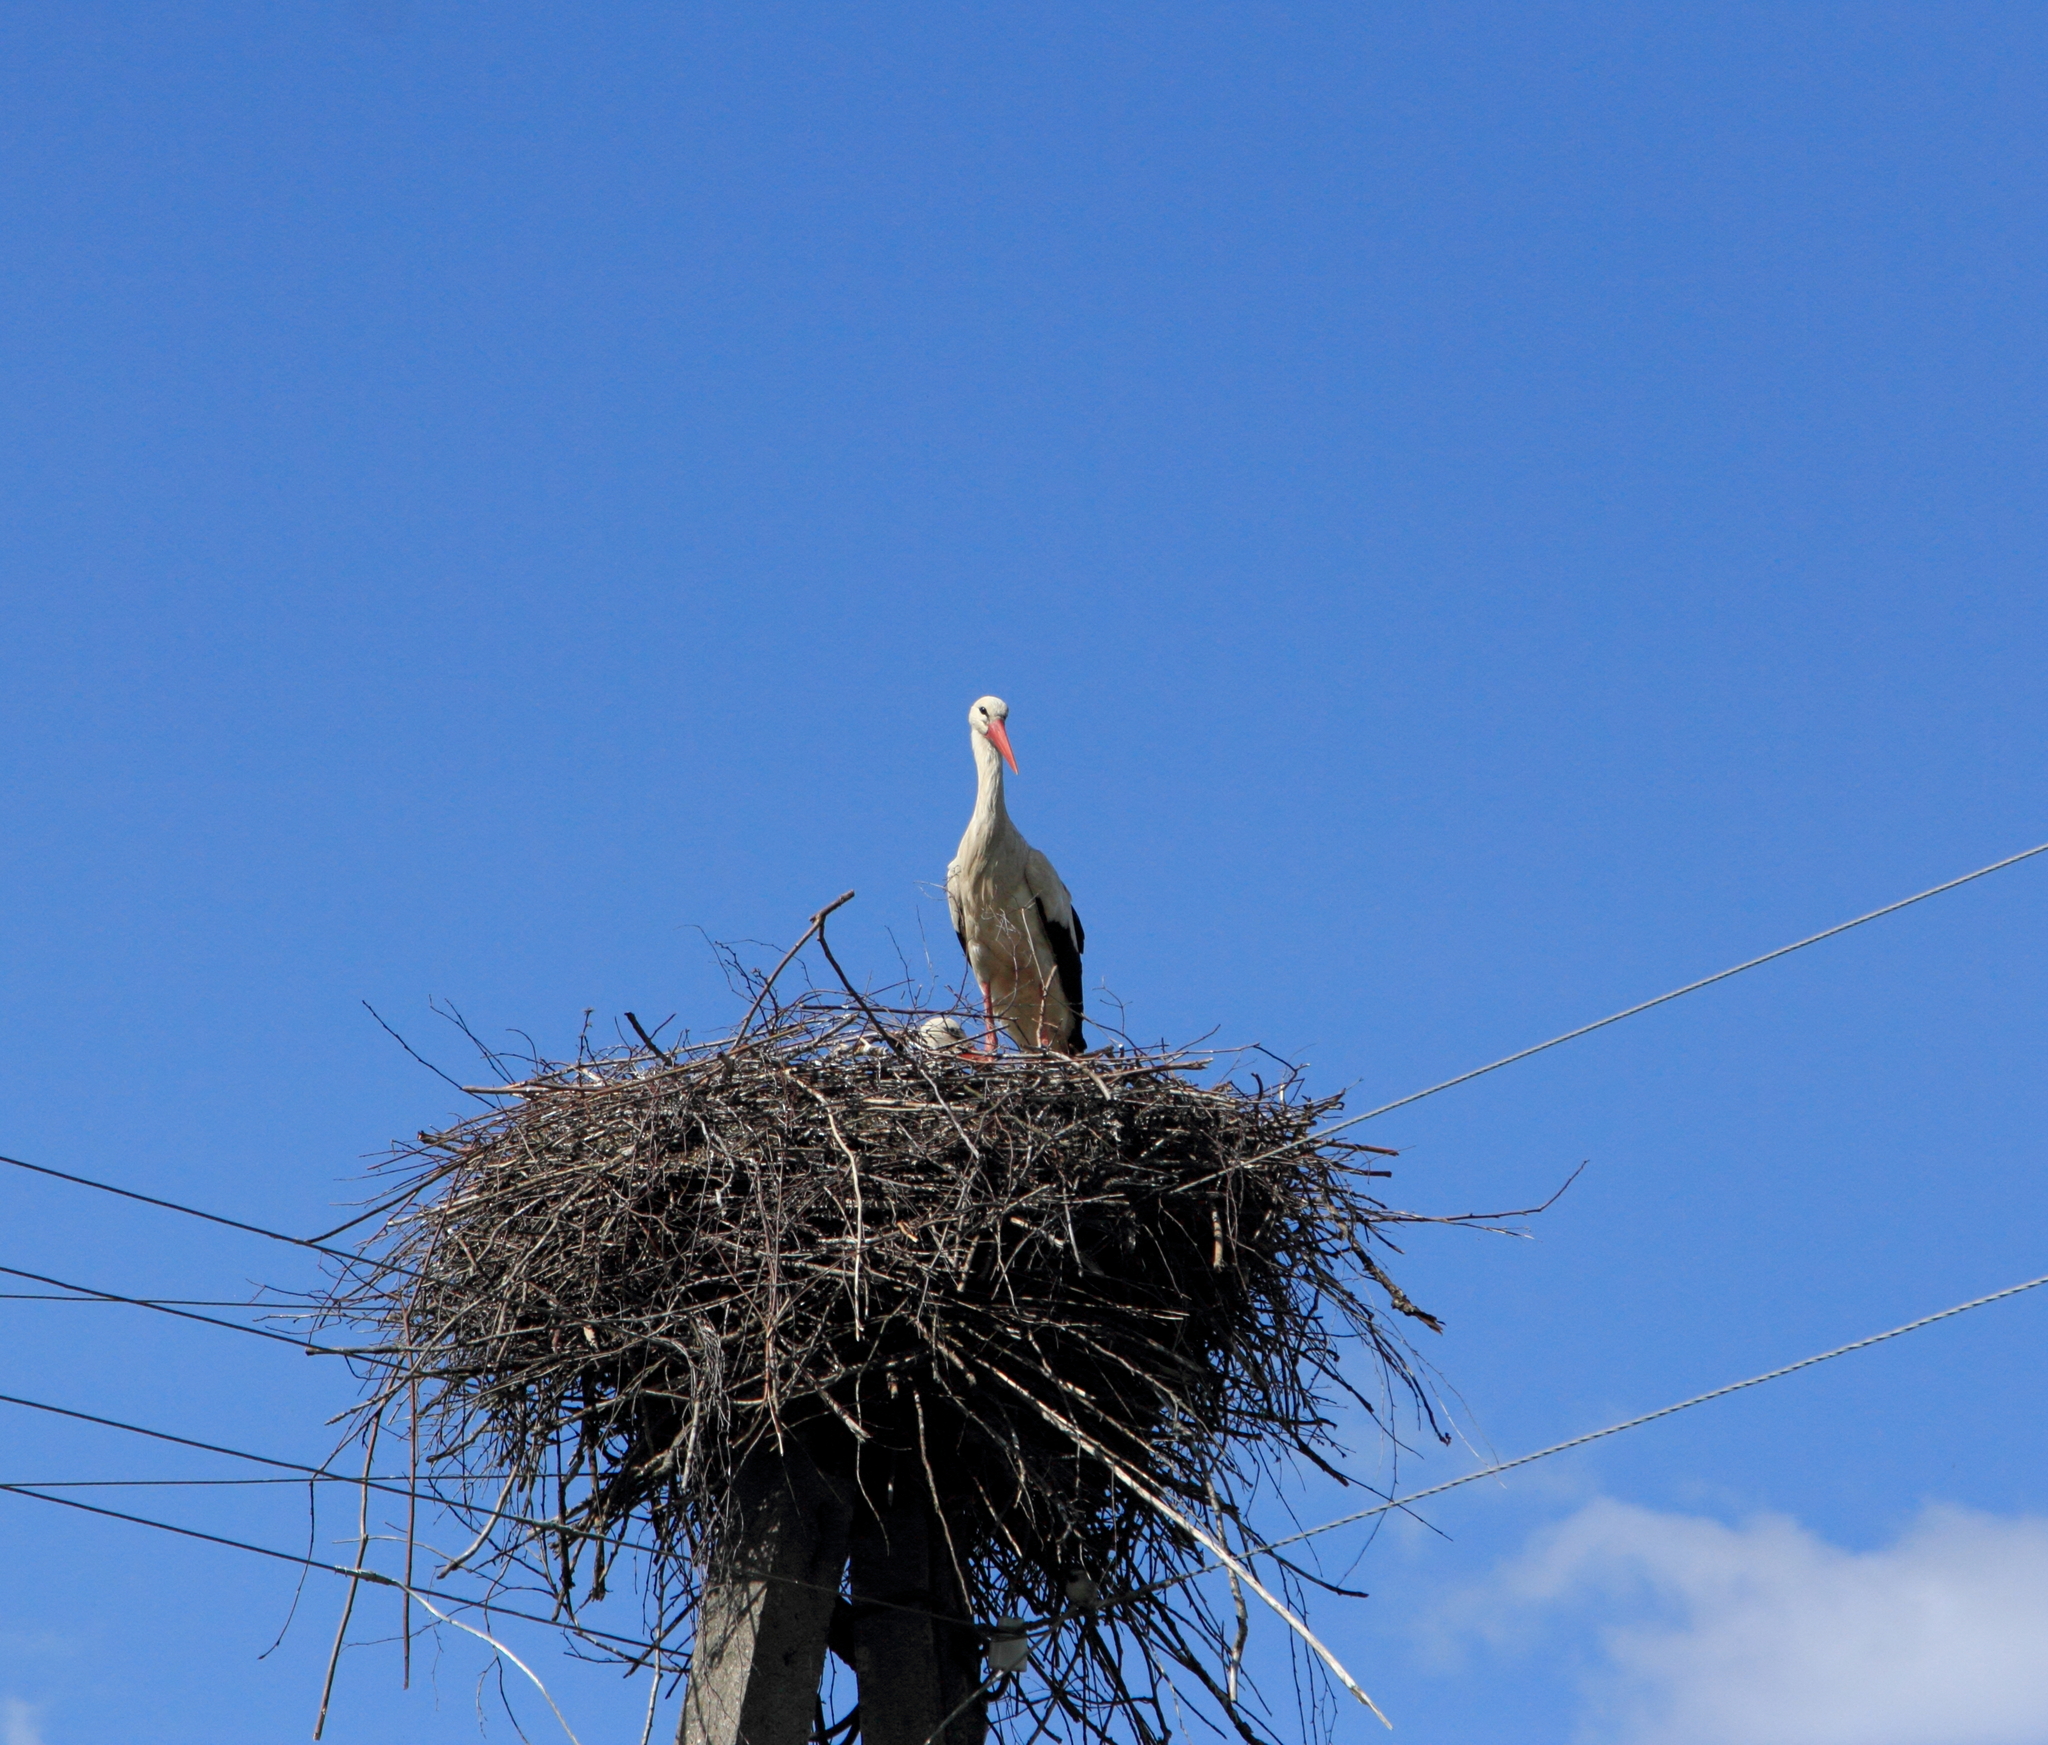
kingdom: Animalia
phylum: Chordata
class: Aves
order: Ciconiiformes
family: Ciconiidae
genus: Ciconia
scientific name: Ciconia ciconia
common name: White stork
